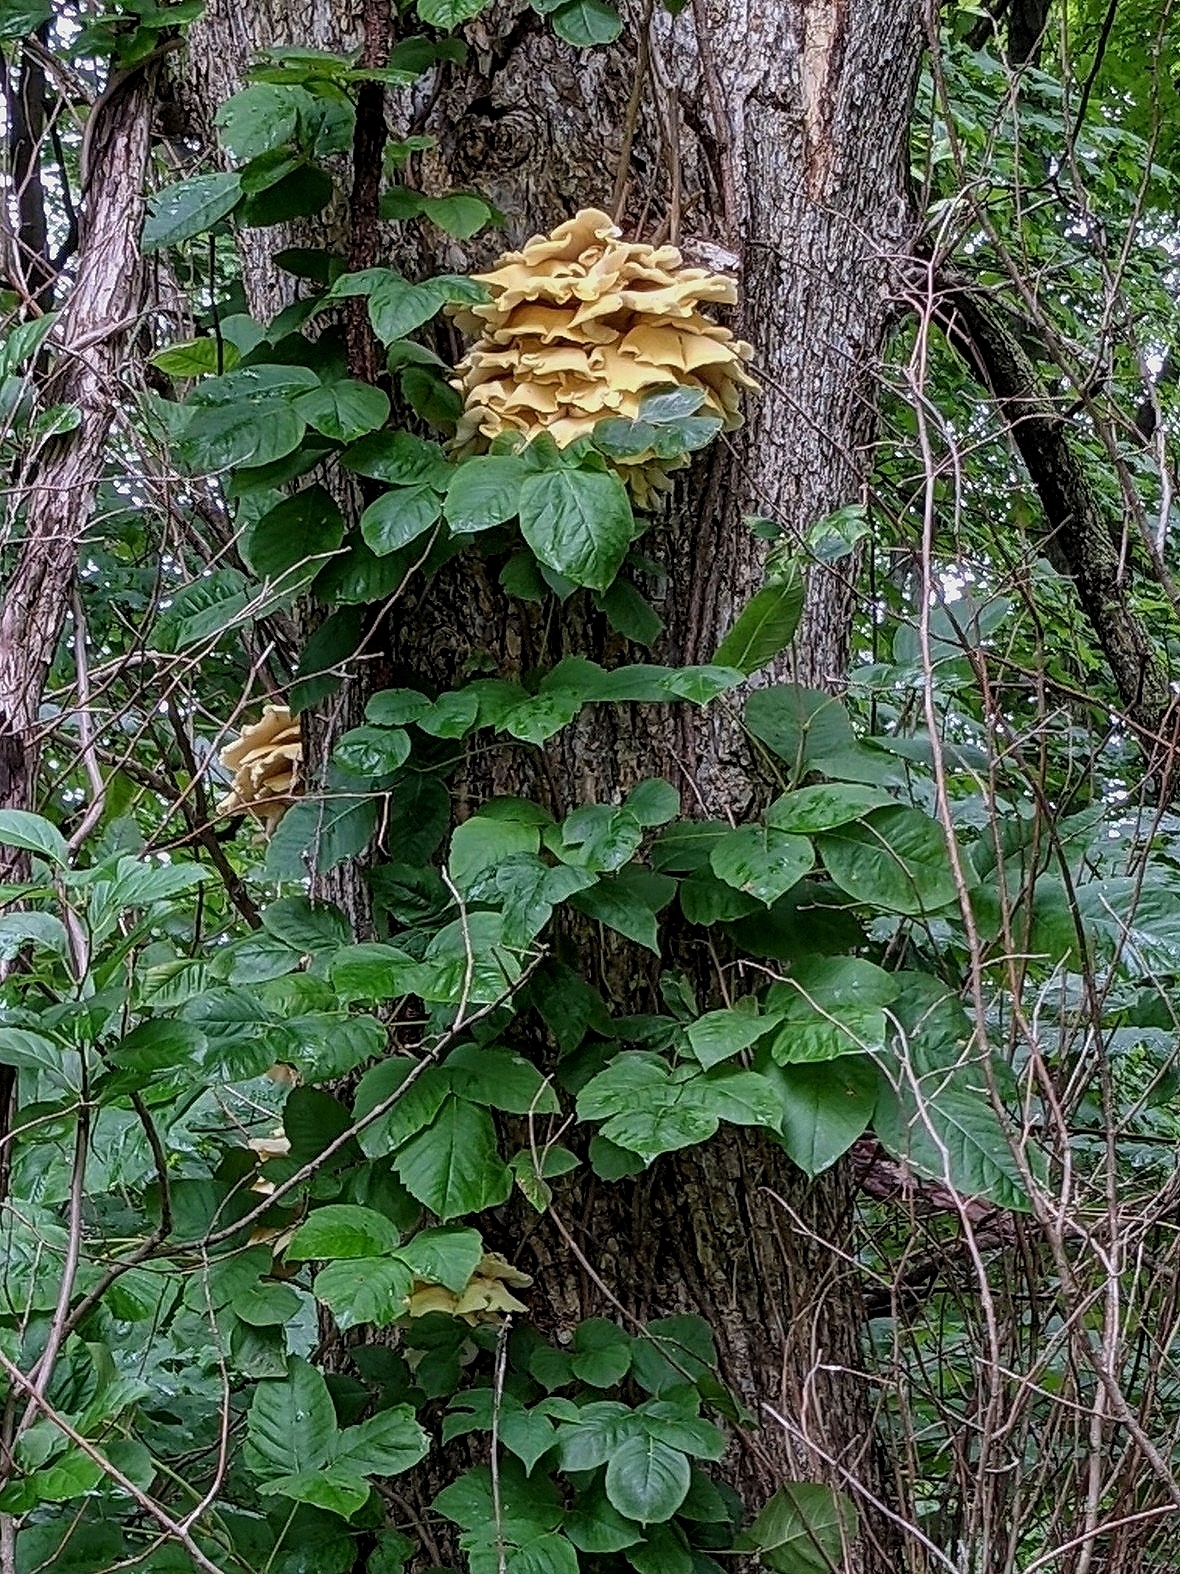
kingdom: Fungi
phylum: Basidiomycota
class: Agaricomycetes
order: Agaricales
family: Pleurotaceae
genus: Pleurotus
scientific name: Pleurotus citrinopileatus
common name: Golden oyster mushroom
